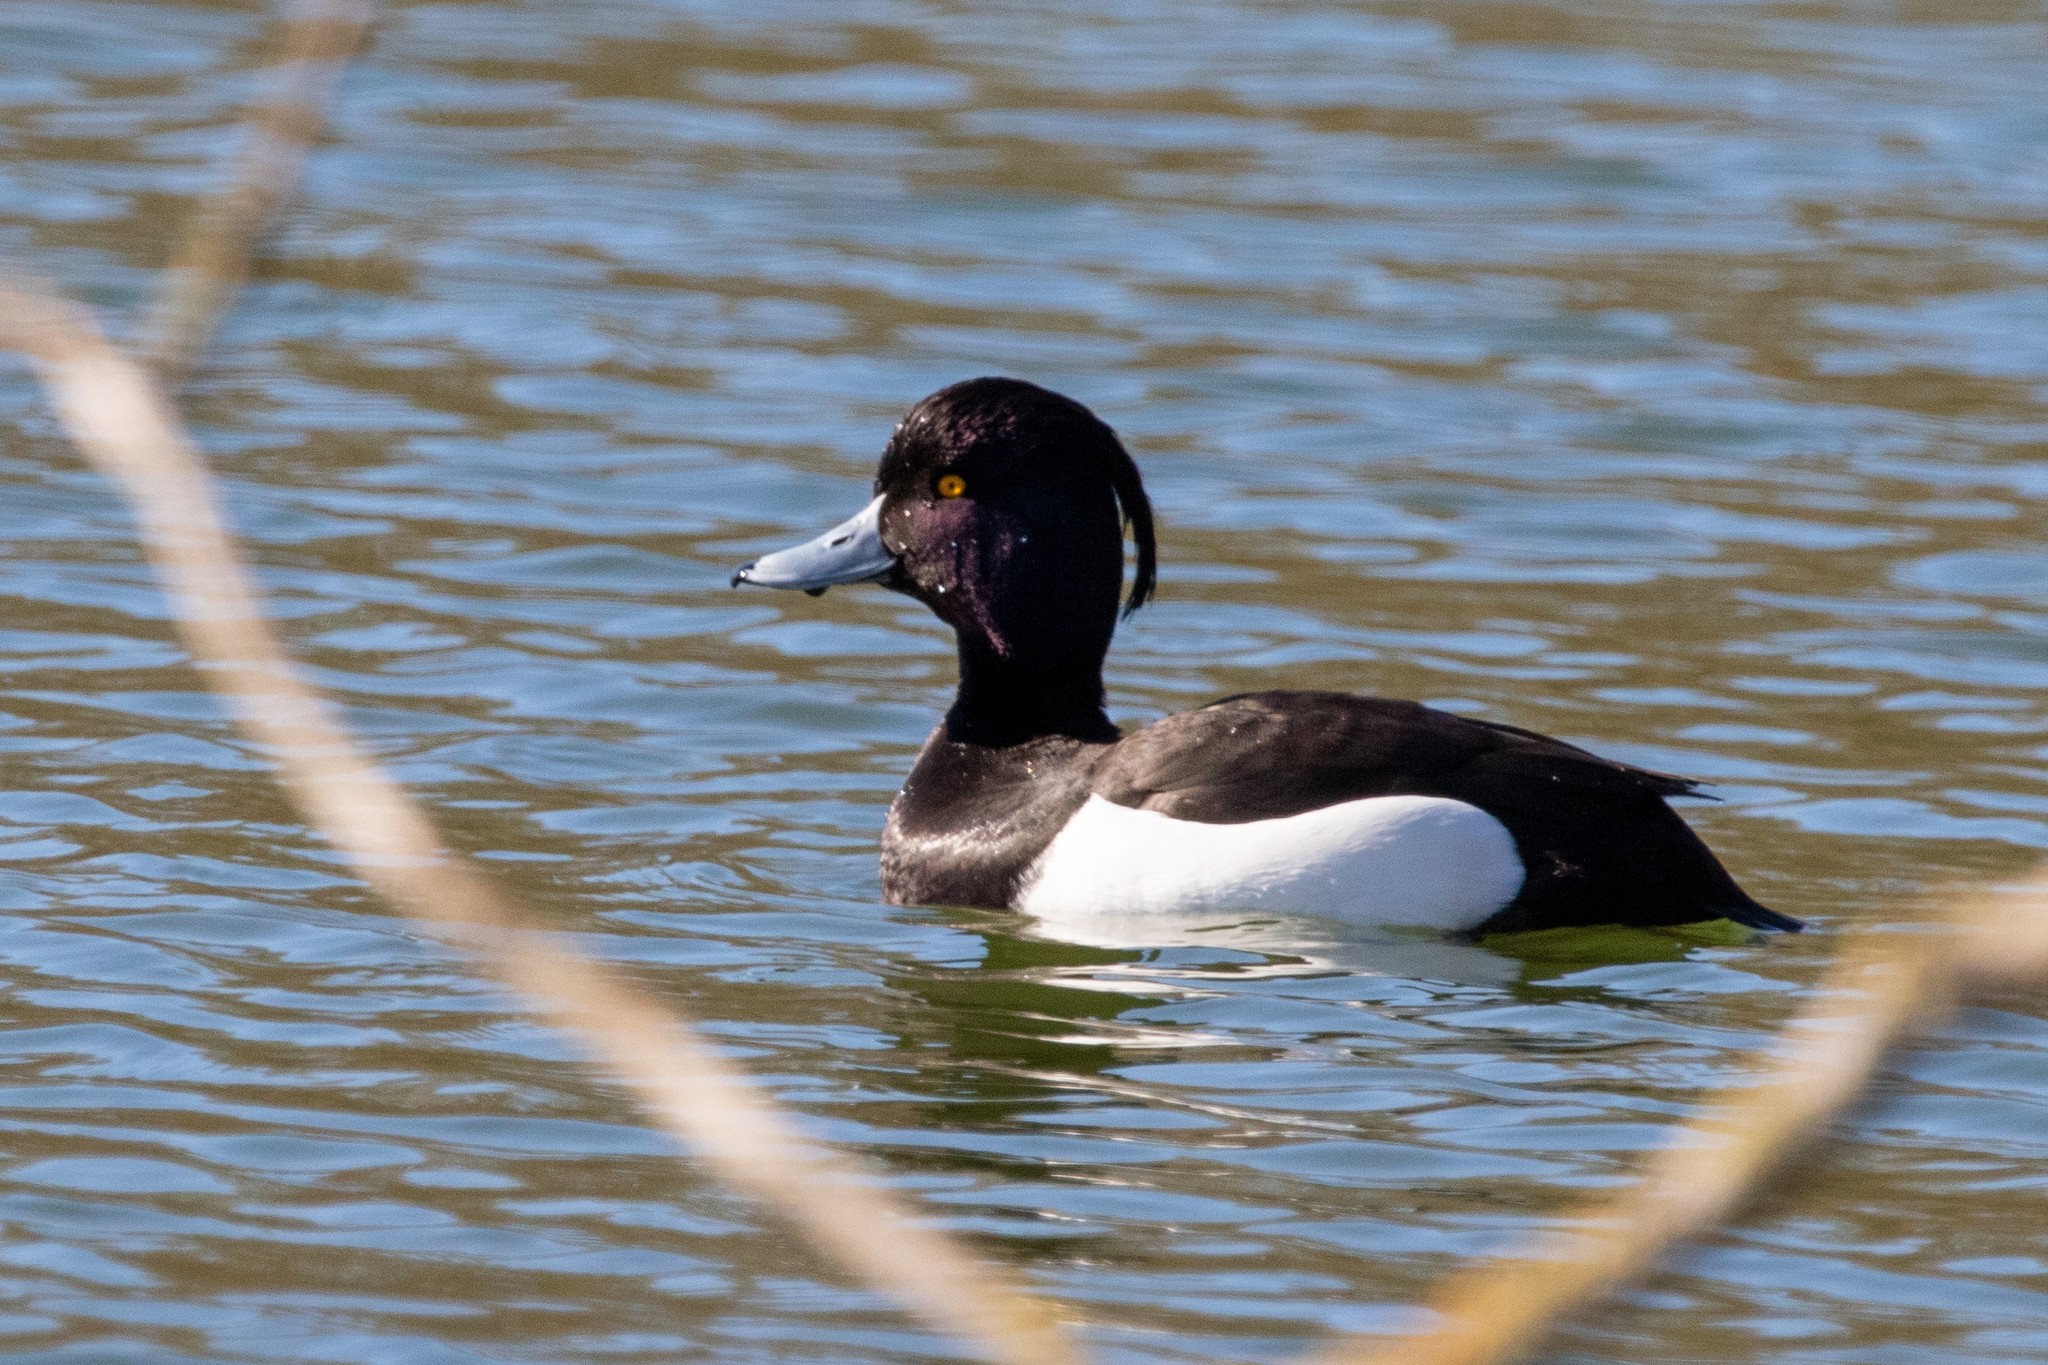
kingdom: Animalia
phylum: Chordata
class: Aves
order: Anseriformes
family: Anatidae
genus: Aythya
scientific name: Aythya fuligula
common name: Tufted duck
